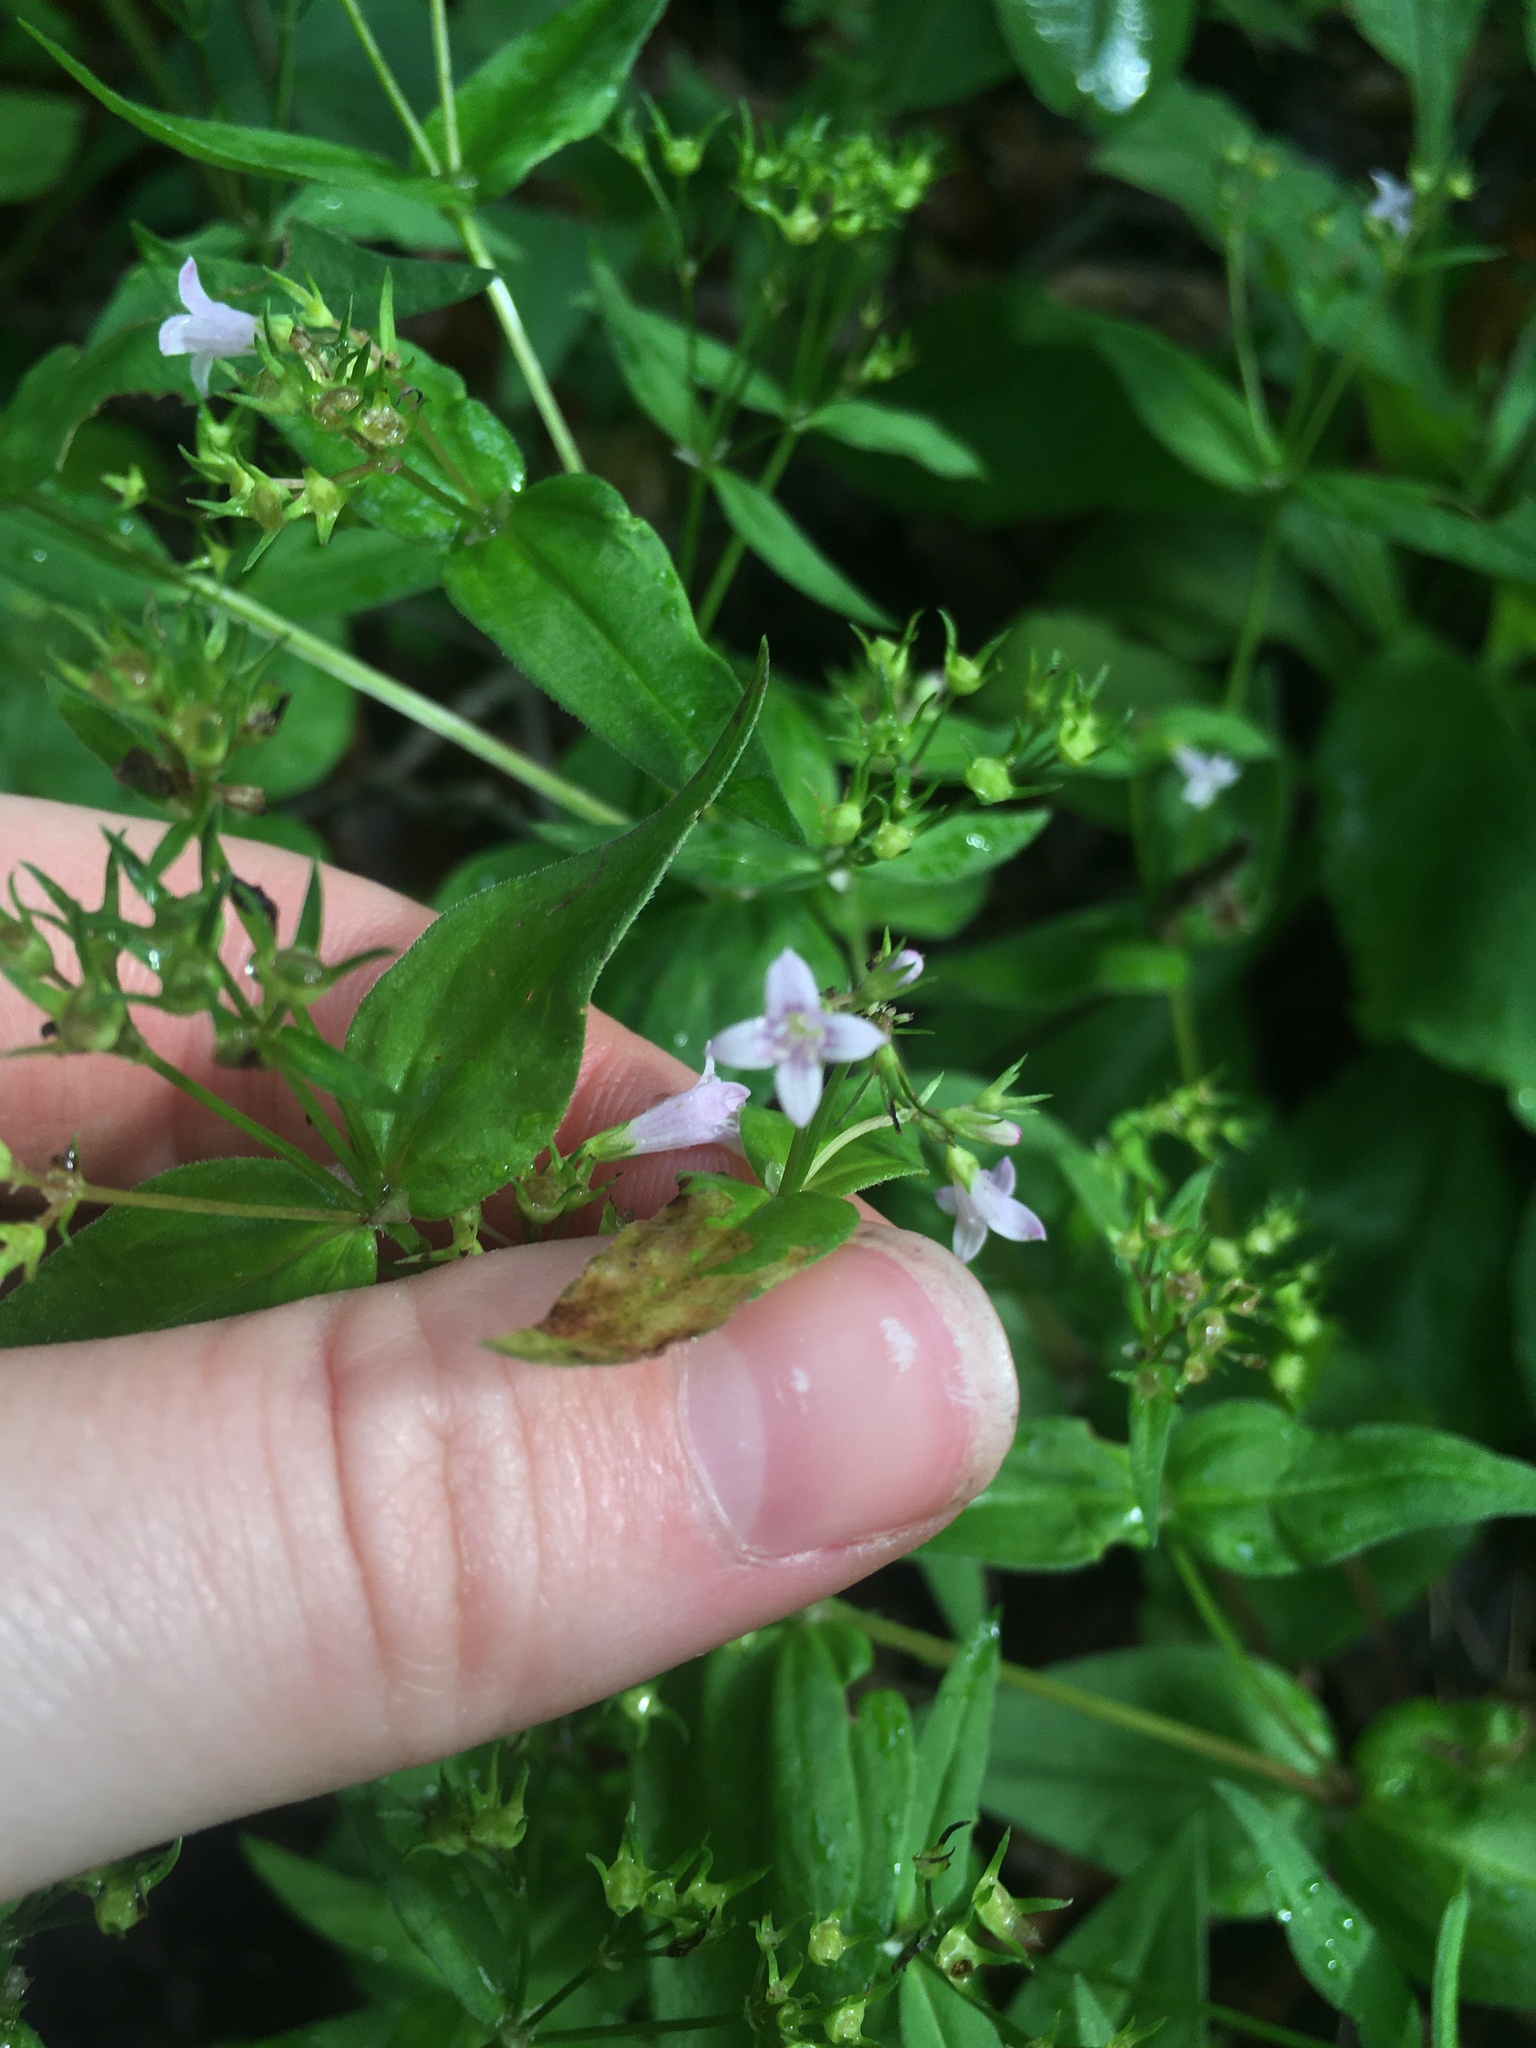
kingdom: Plantae
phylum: Tracheophyta
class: Magnoliopsida
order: Gentianales
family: Rubiaceae
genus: Houstonia
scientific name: Houstonia purpurea
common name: Summer bluet
